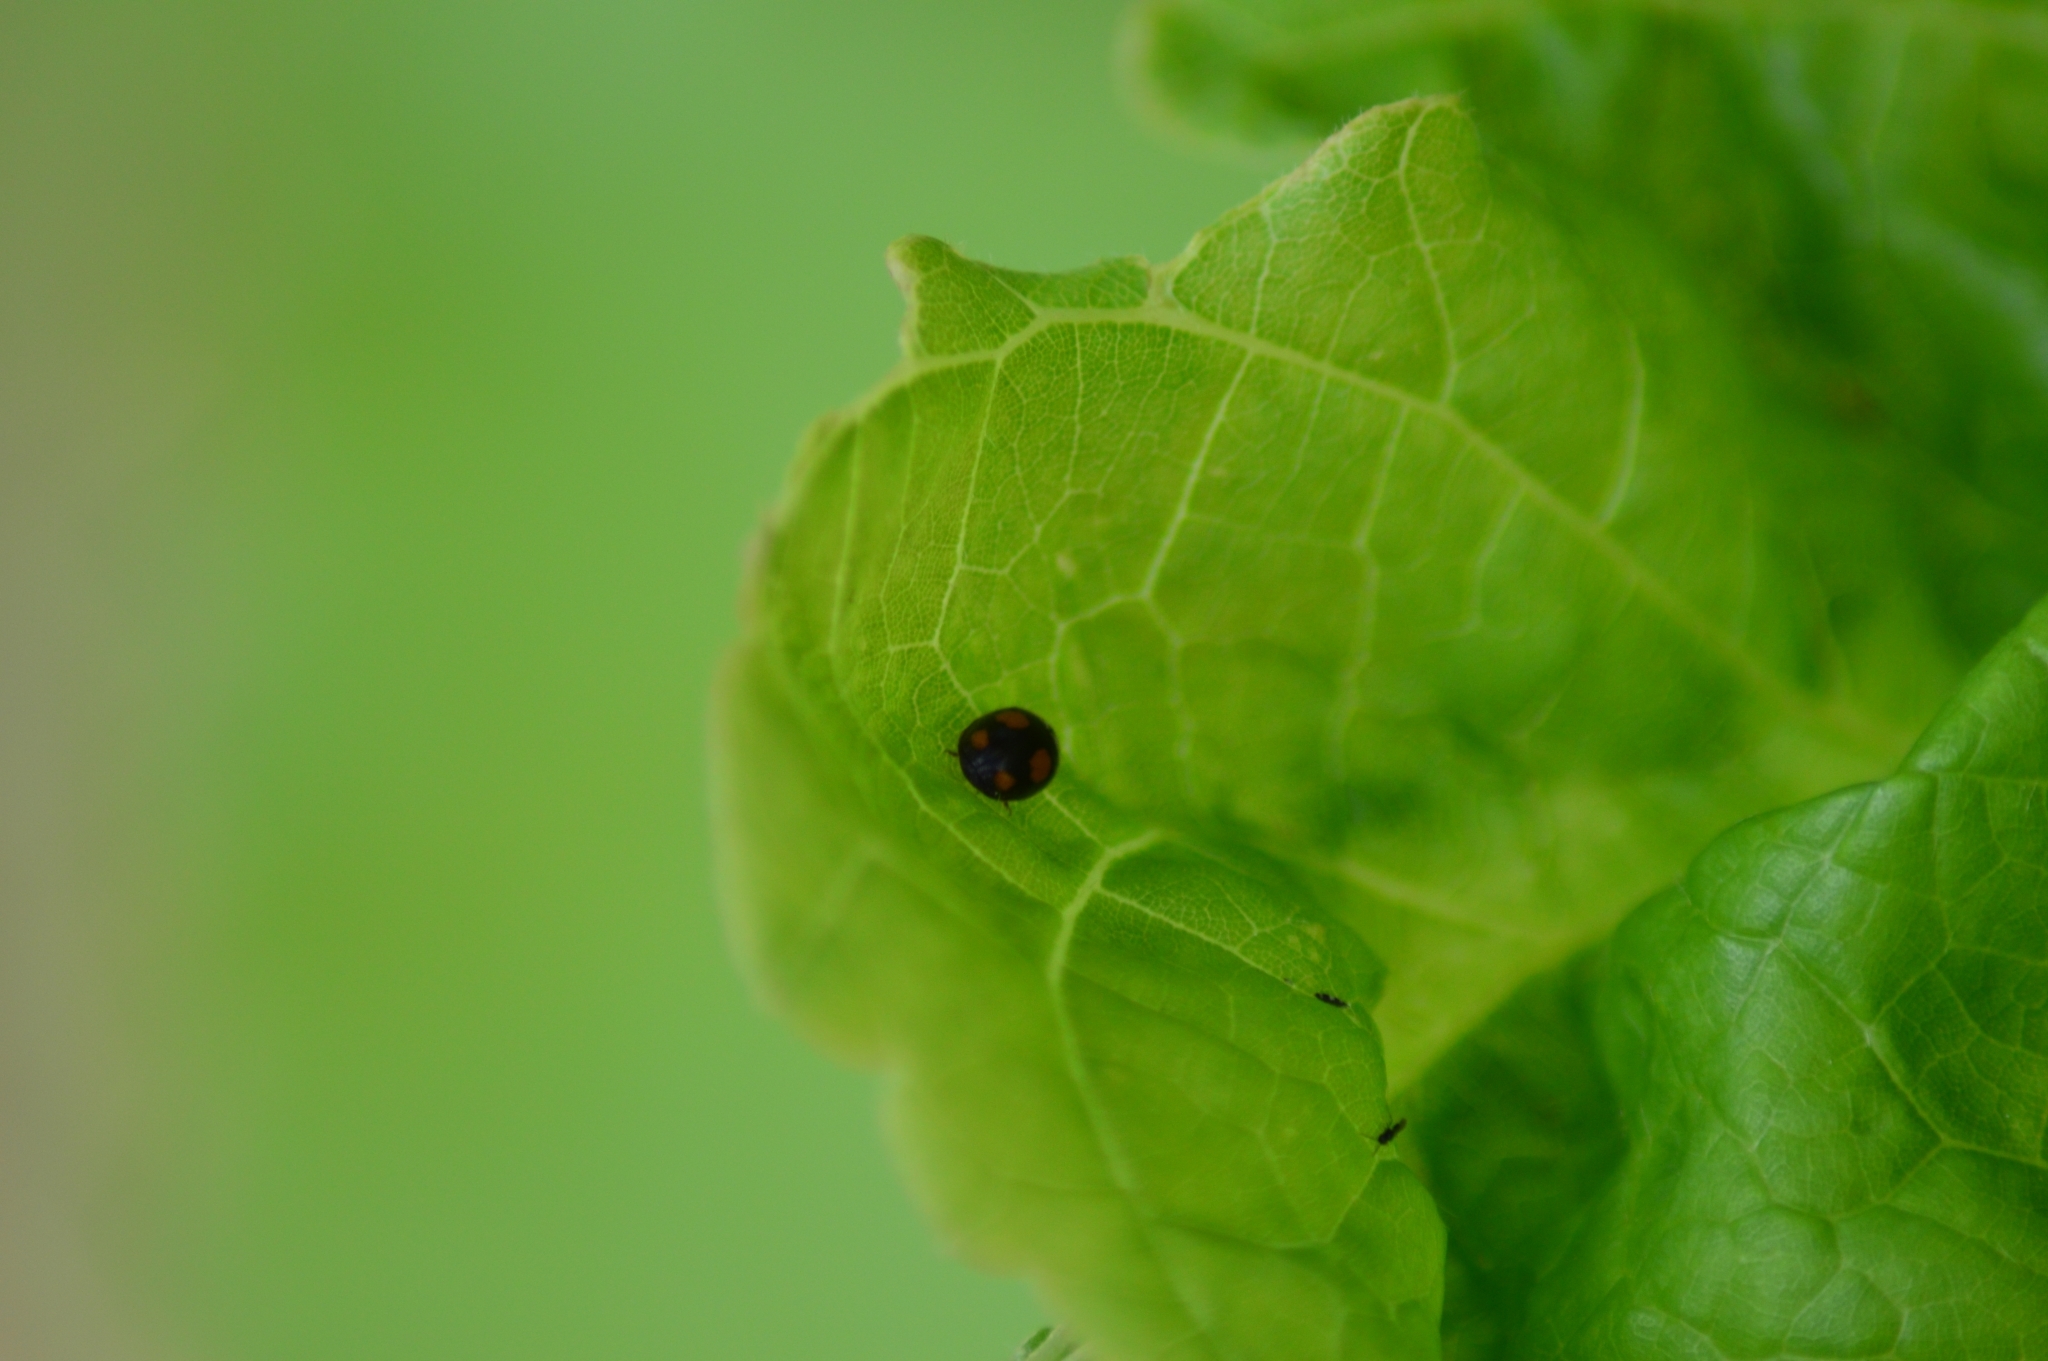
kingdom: Animalia
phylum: Arthropoda
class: Insecta
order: Coleoptera
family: Coccinellidae
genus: Harmonia
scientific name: Harmonia axyridis
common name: Harlequin ladybird
